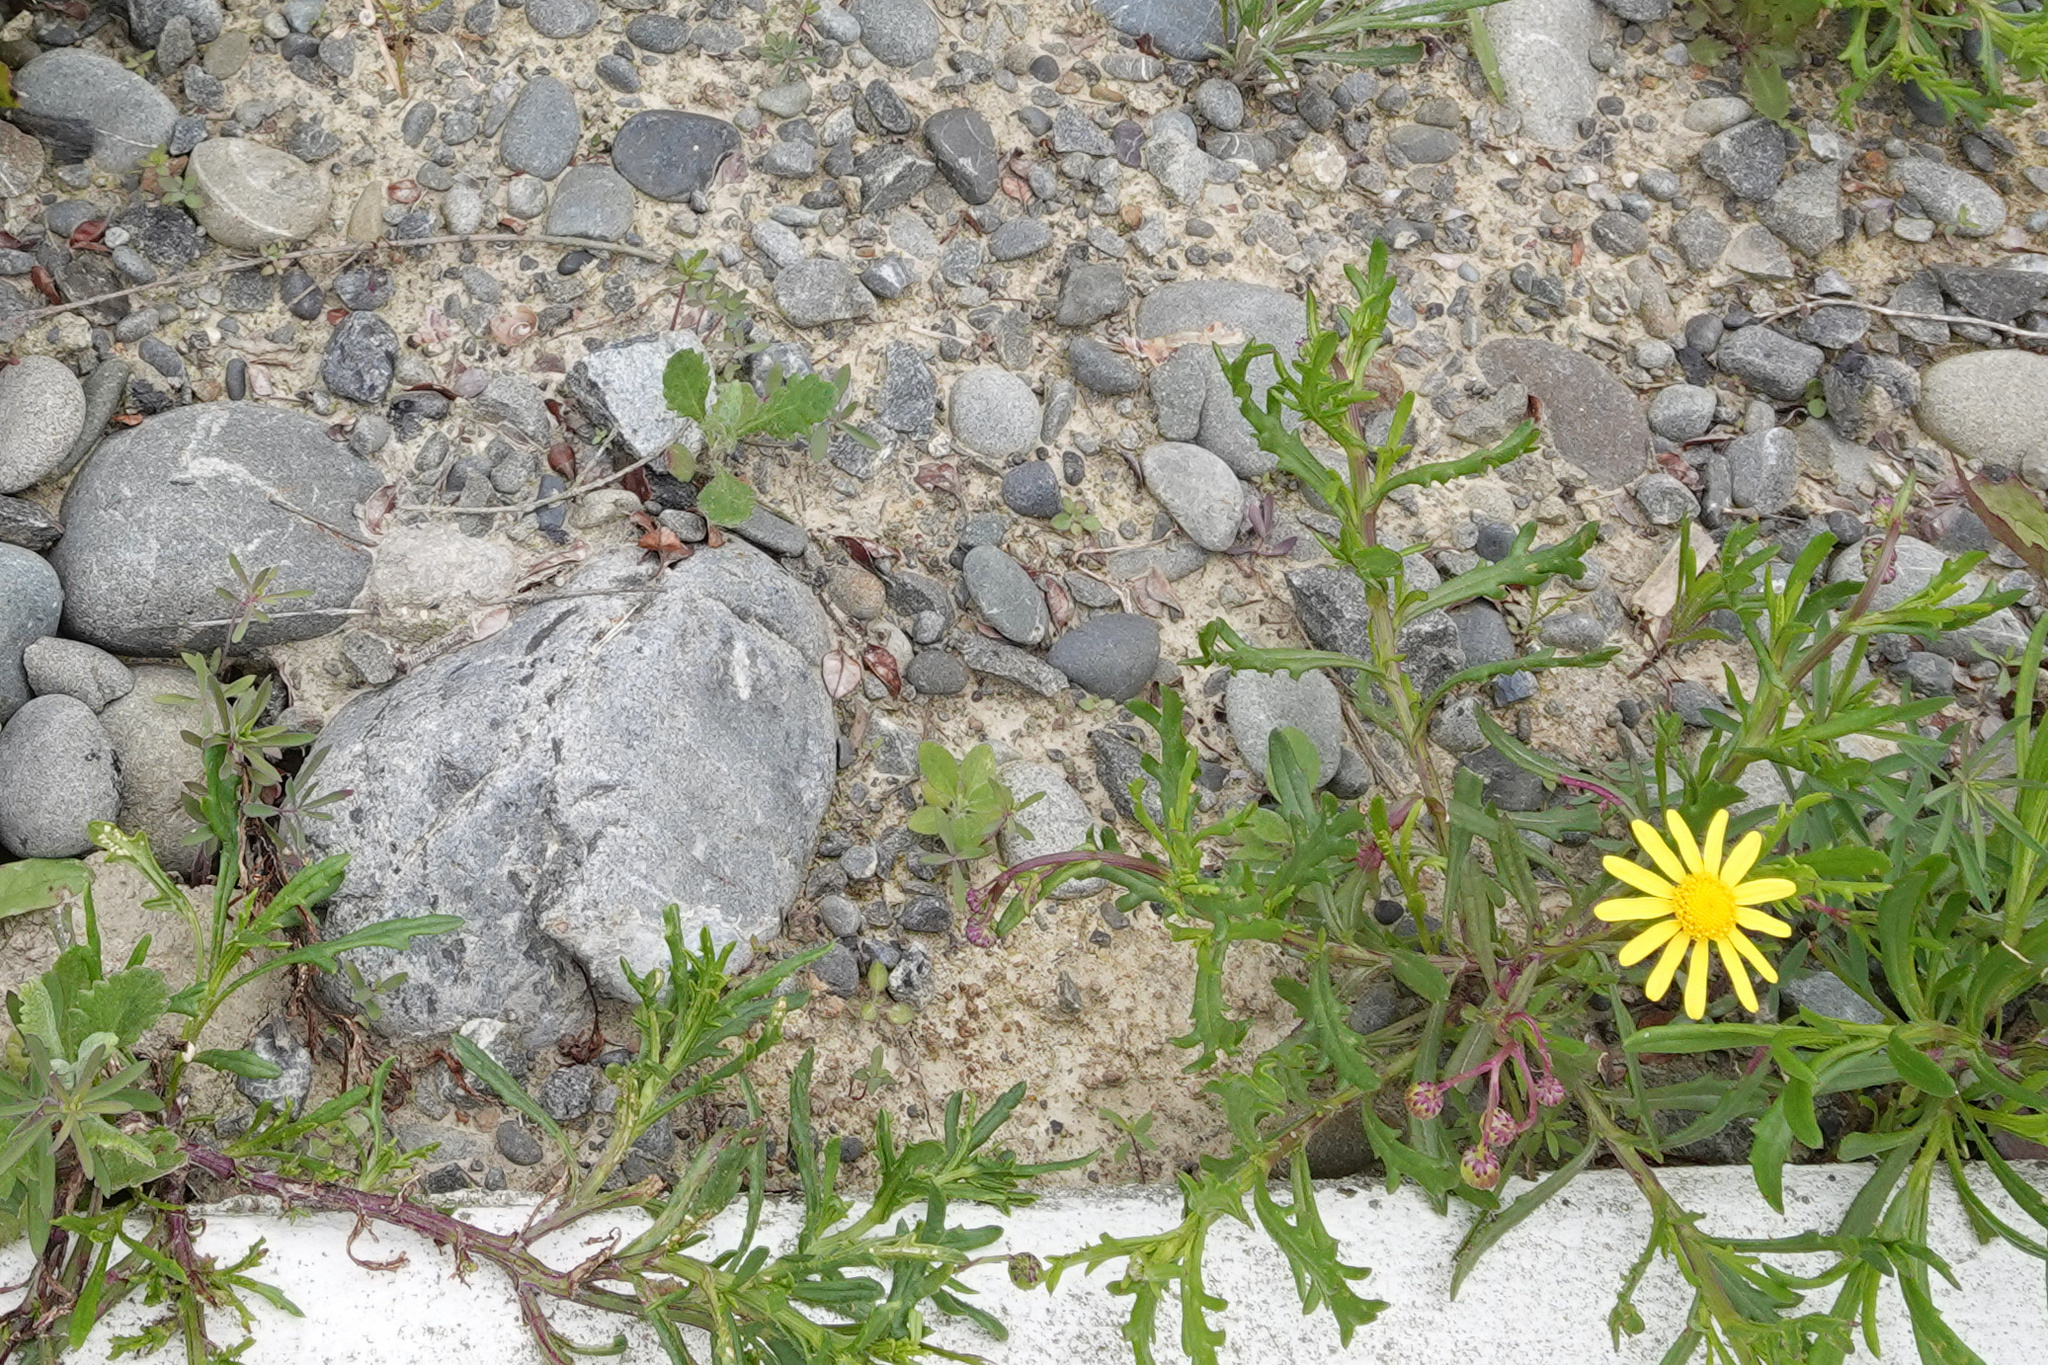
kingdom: Plantae
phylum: Tracheophyta
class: Magnoliopsida
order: Asterales
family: Asteraceae
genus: Senecio
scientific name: Senecio skirrhodon
